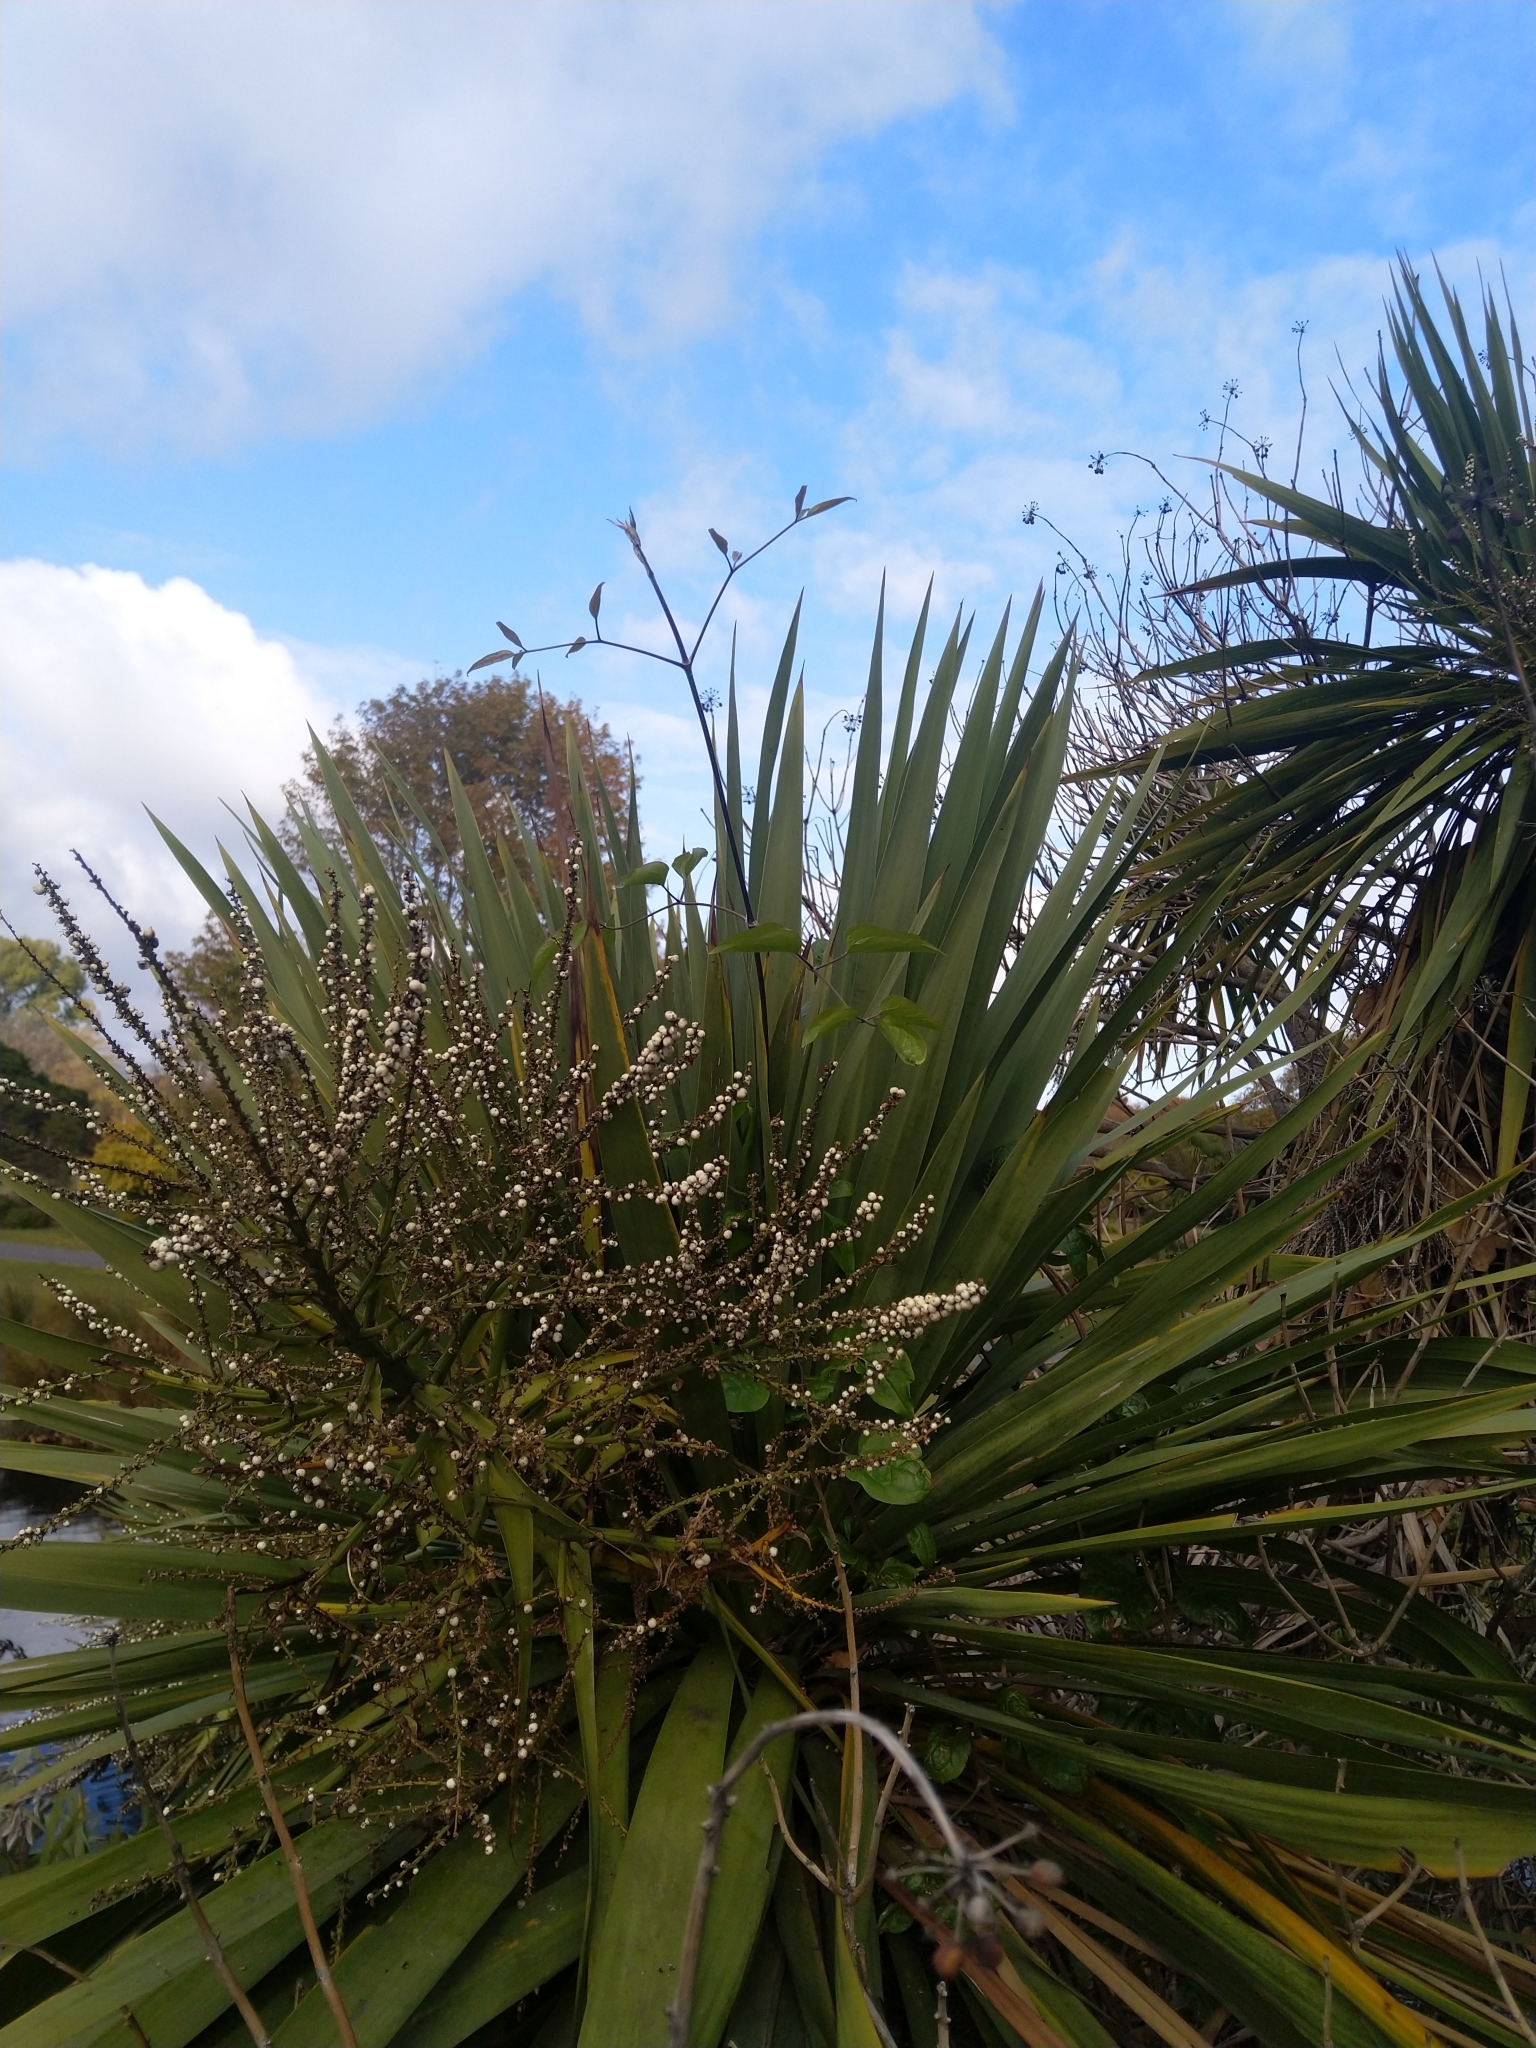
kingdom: Plantae
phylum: Tracheophyta
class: Magnoliopsida
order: Ranunculales
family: Ranunculaceae
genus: Clematis
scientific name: Clematis vitalba
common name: Evergreen clematis
